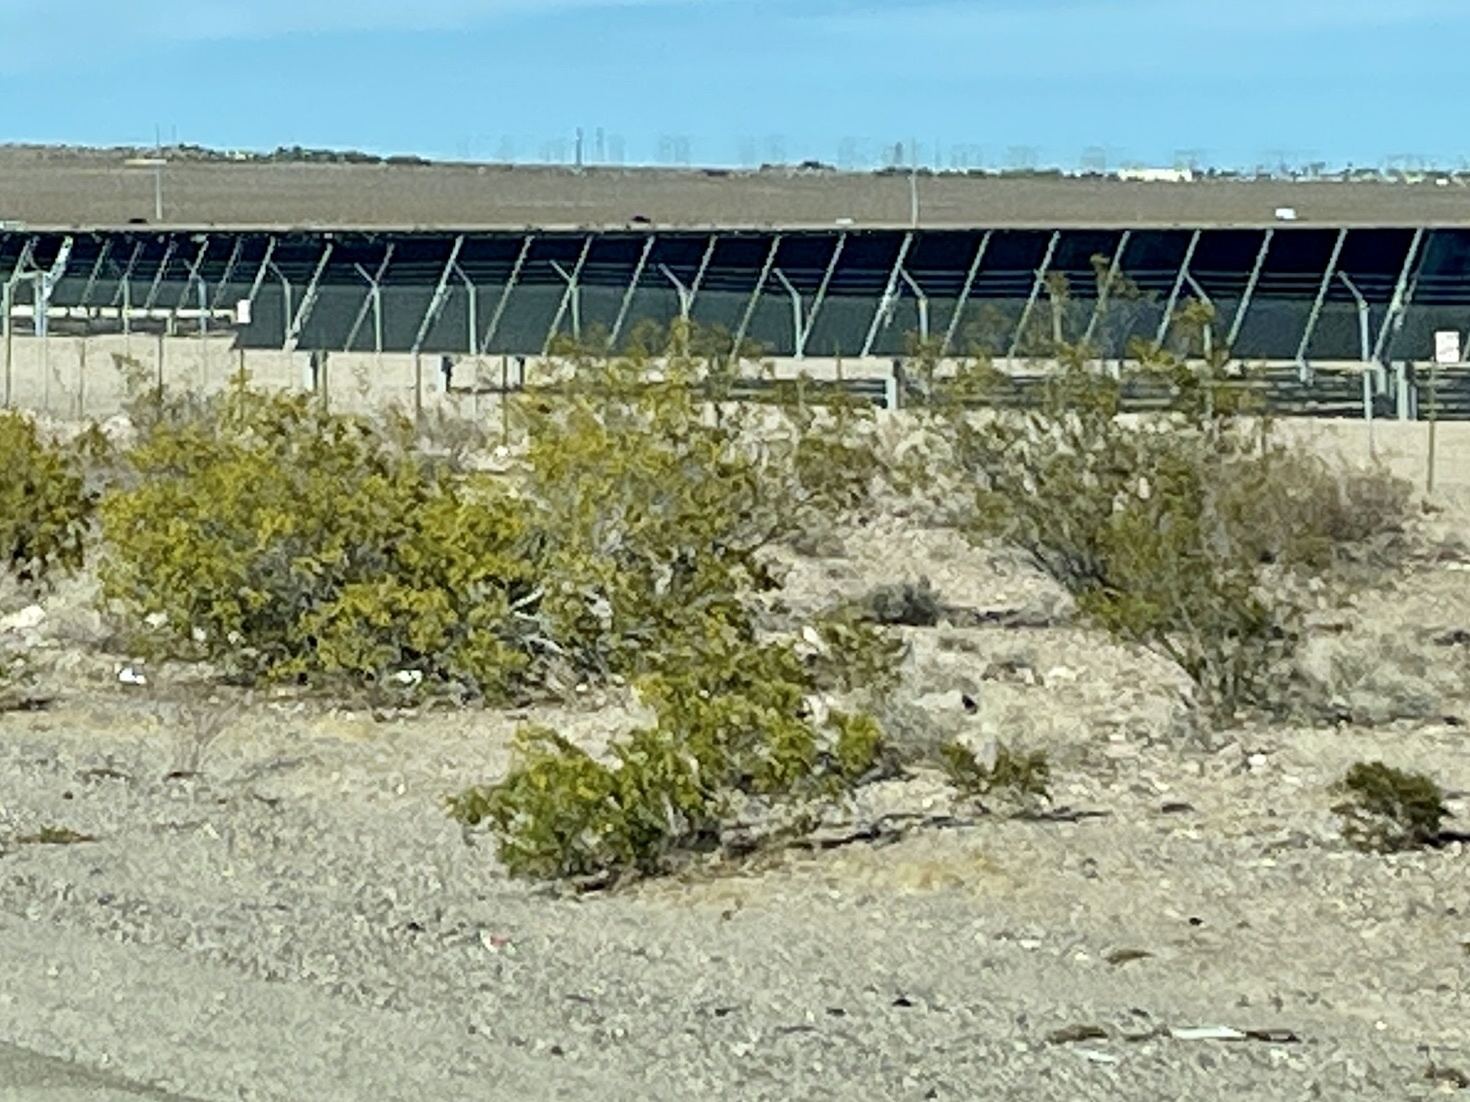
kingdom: Plantae
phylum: Tracheophyta
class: Magnoliopsida
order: Zygophyllales
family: Zygophyllaceae
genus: Larrea
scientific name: Larrea tridentata
